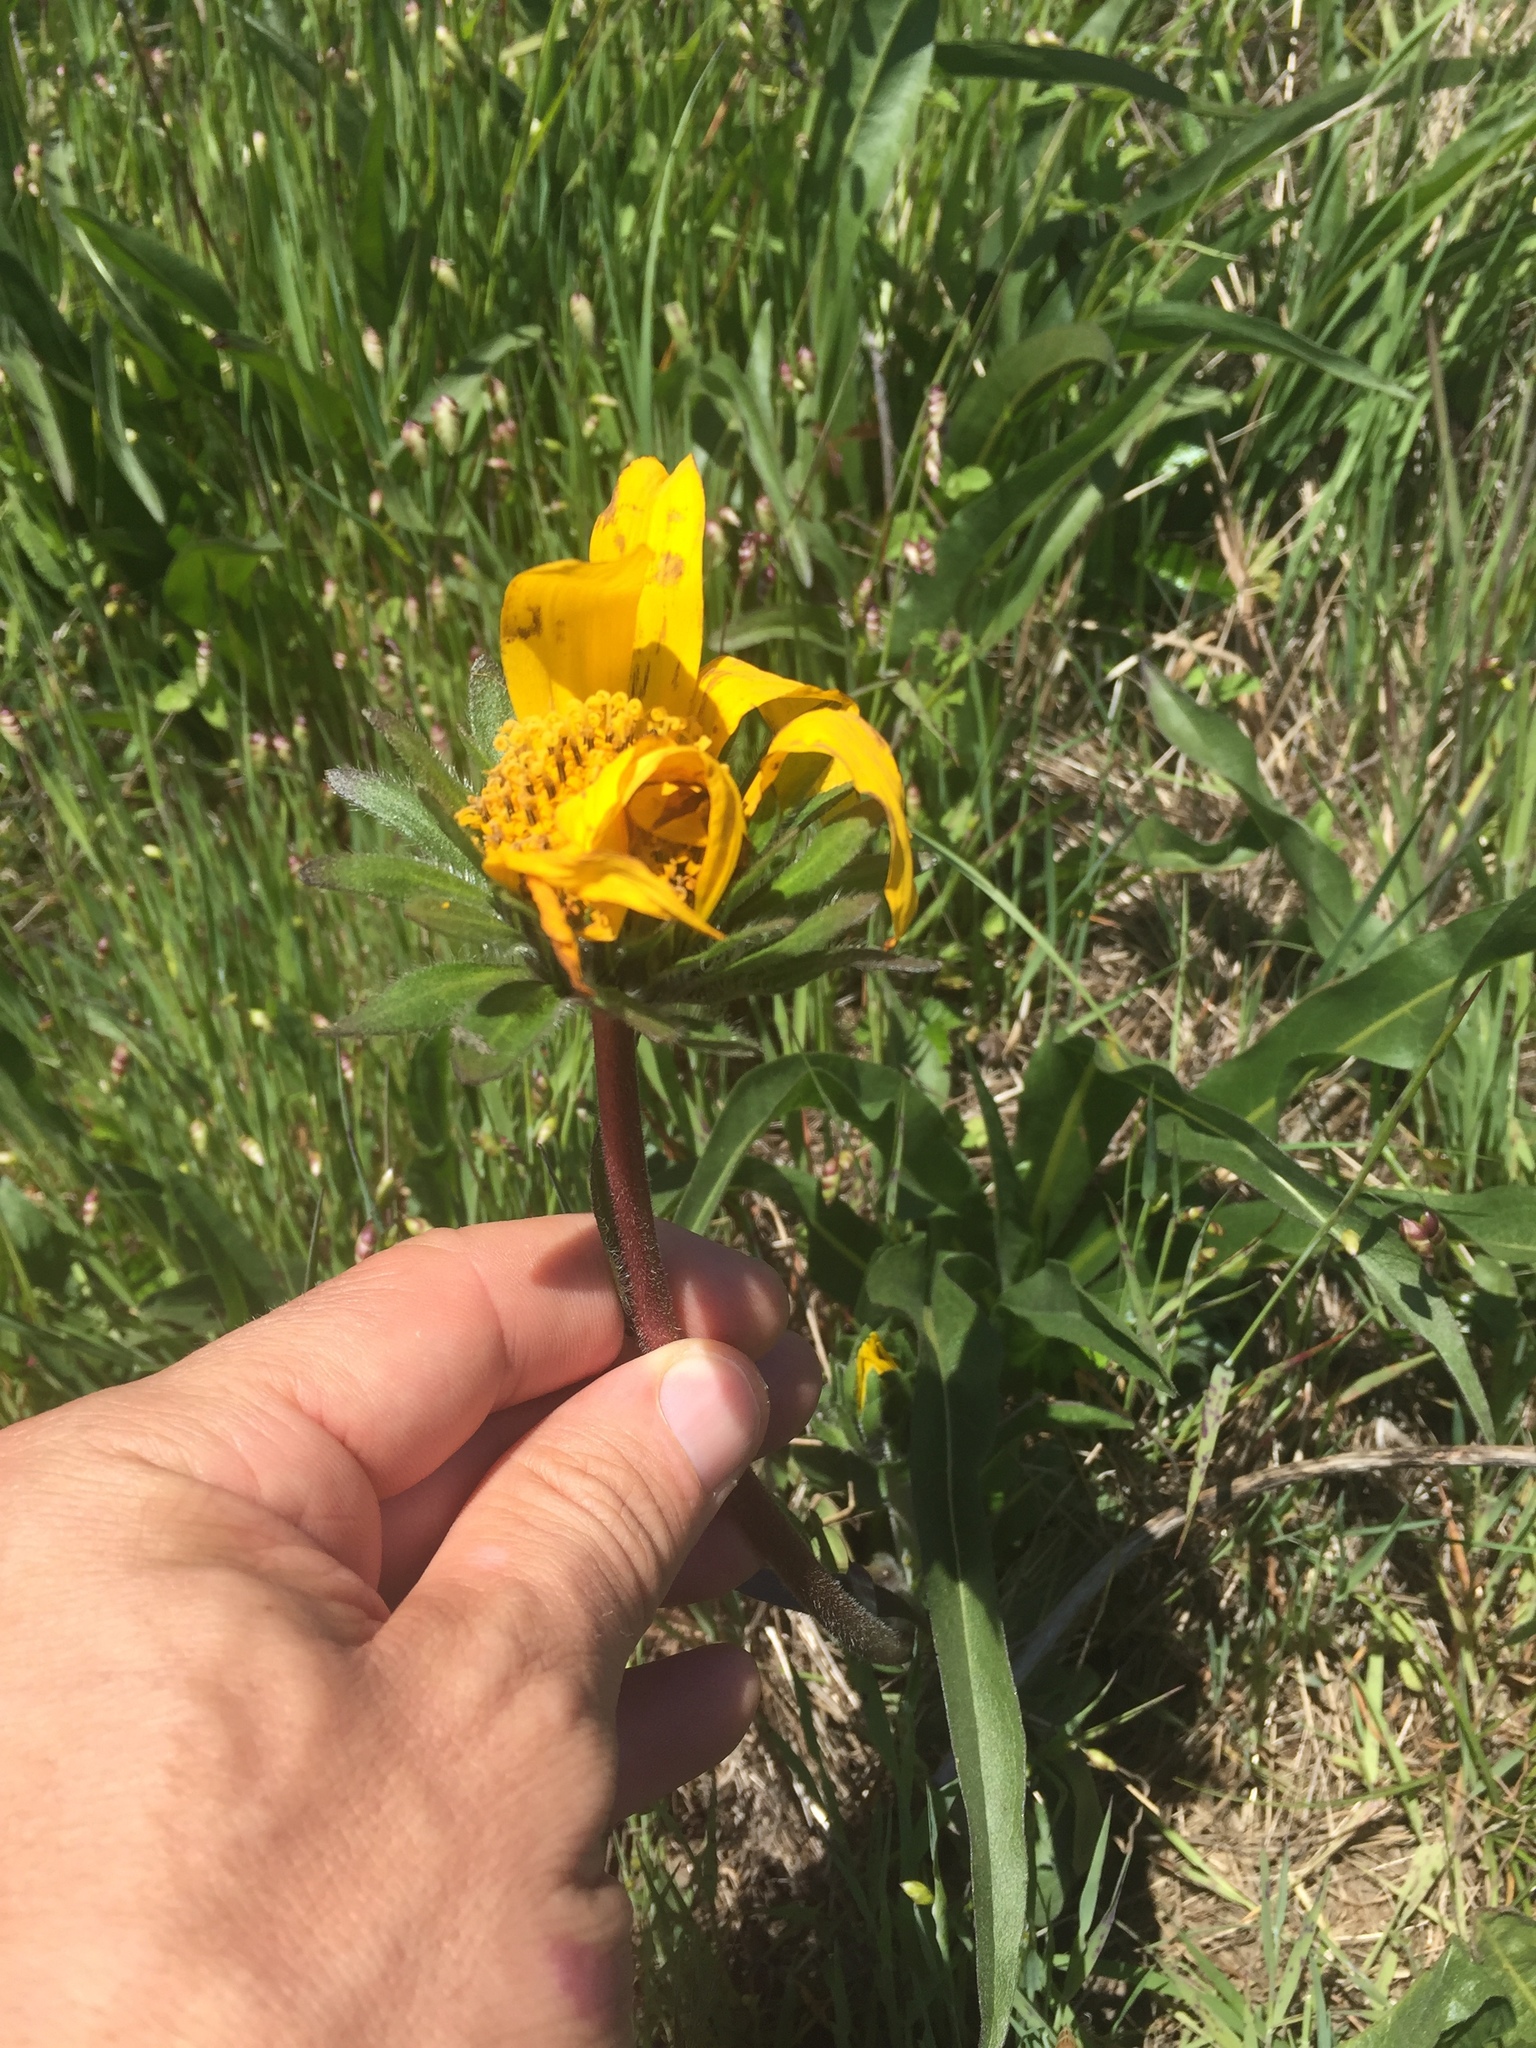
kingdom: Plantae
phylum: Tracheophyta
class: Magnoliopsida
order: Asterales
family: Asteraceae
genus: Wyethia
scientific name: Wyethia angustifolia
